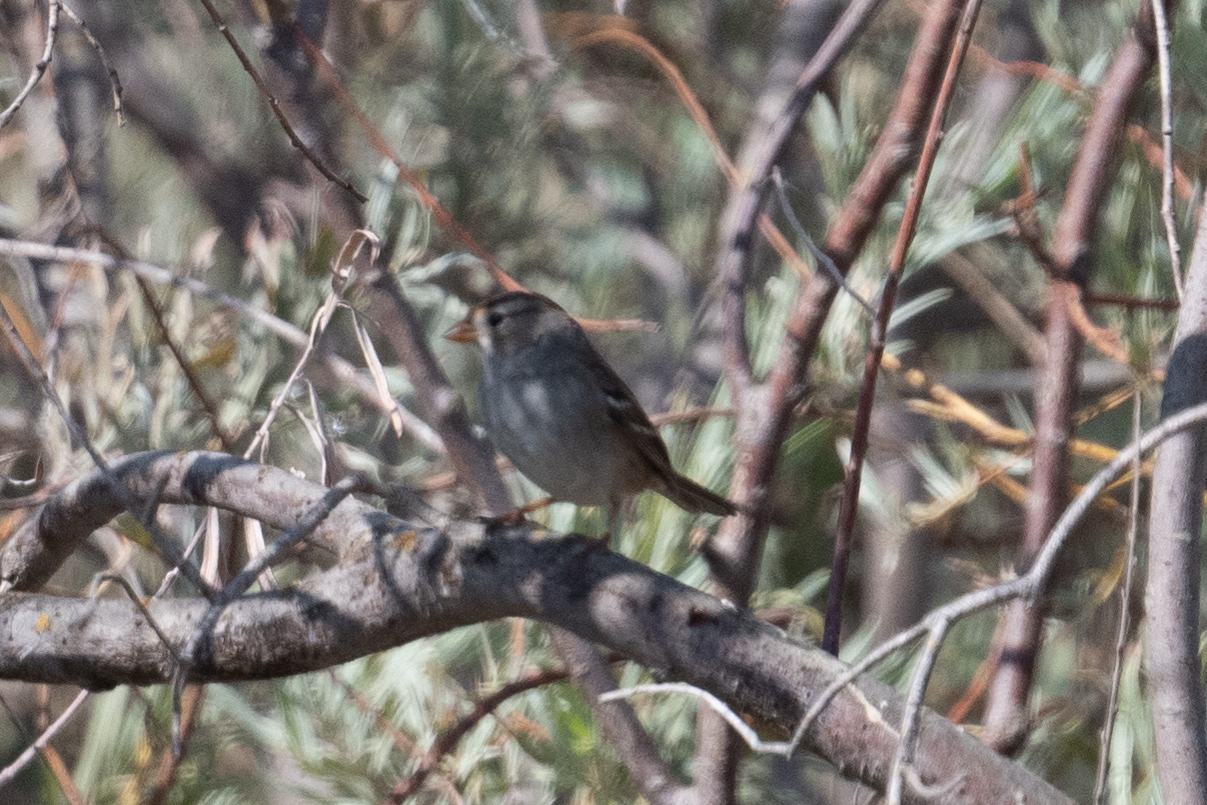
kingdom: Animalia
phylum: Chordata
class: Aves
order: Passeriformes
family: Passerellidae
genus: Zonotrichia
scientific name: Zonotrichia leucophrys
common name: White-crowned sparrow
